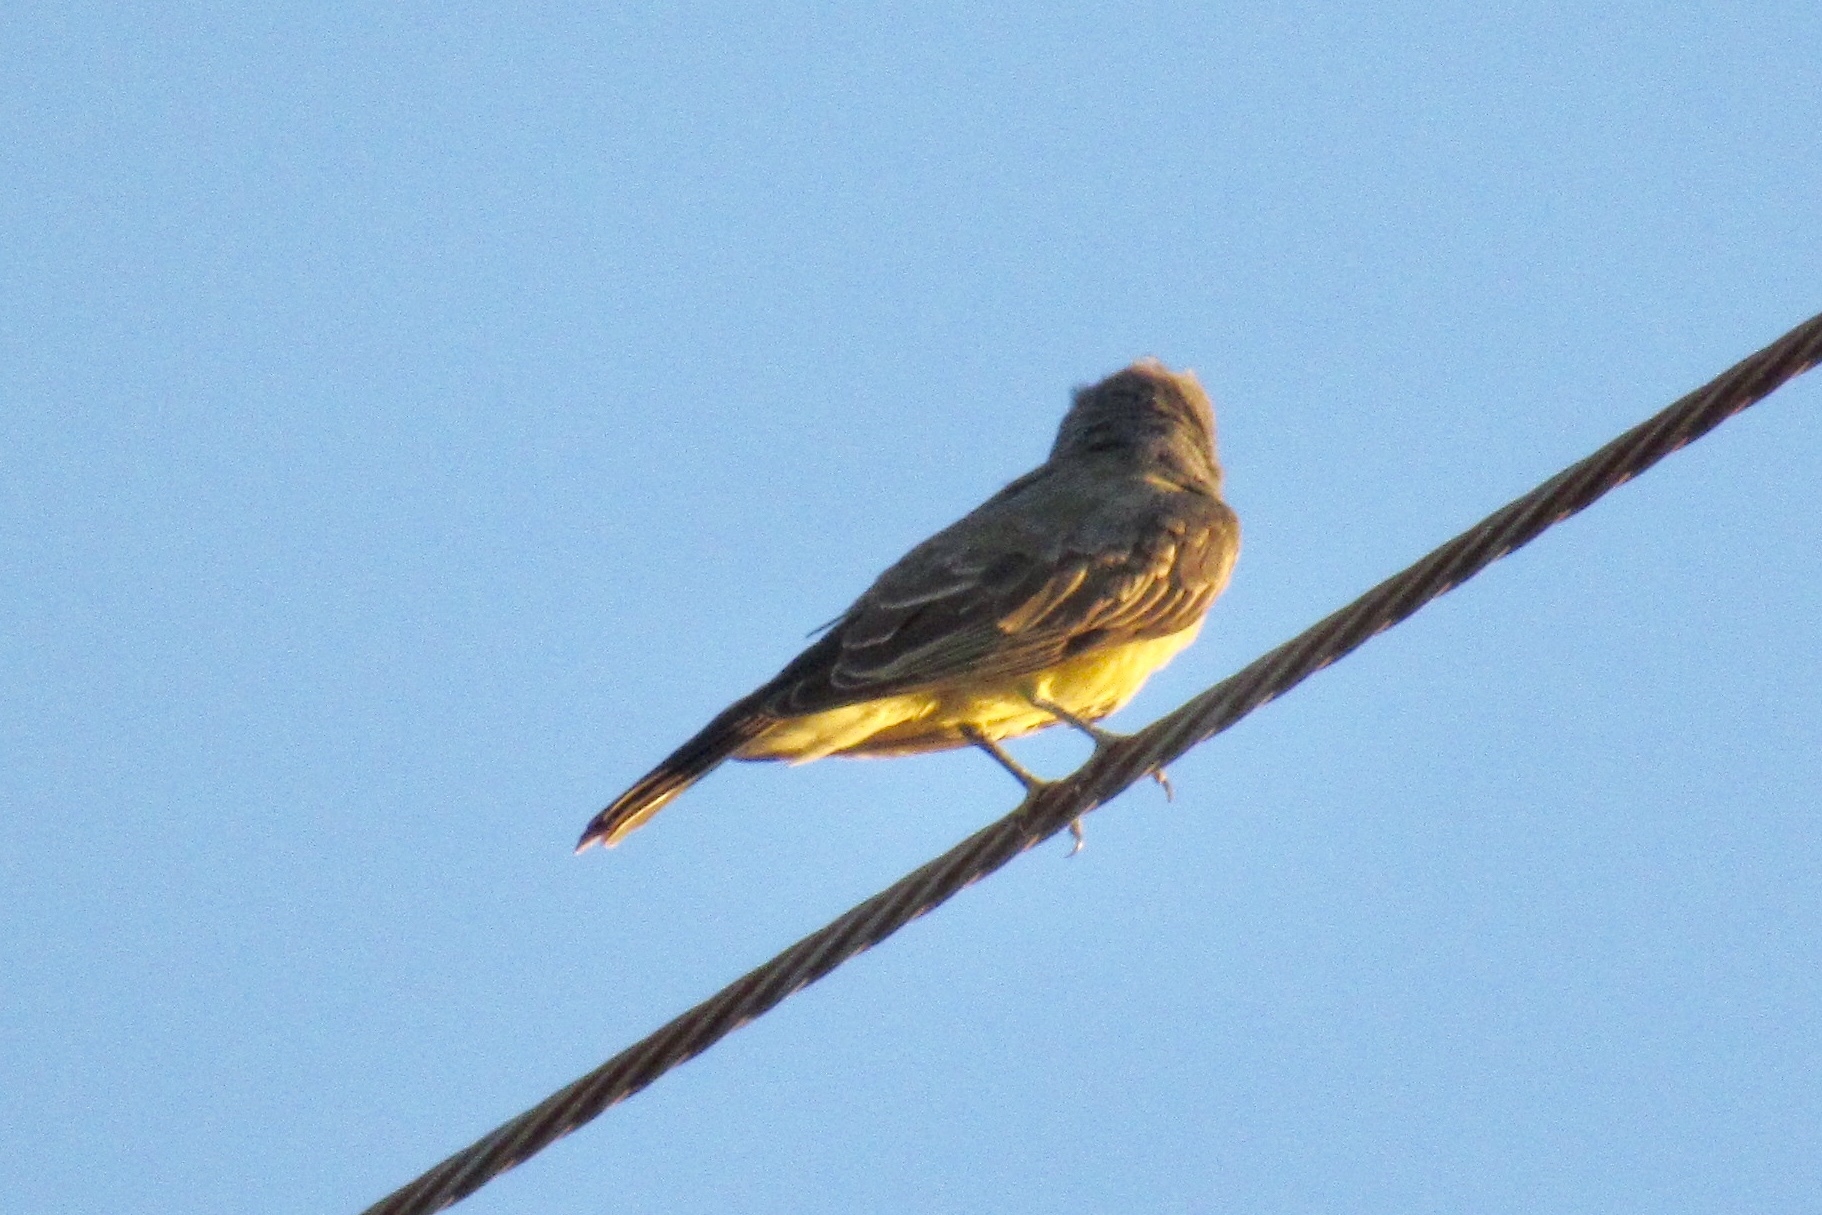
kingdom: Animalia
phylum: Chordata
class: Aves
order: Passeriformes
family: Tyrannidae
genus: Tyrannus
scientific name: Tyrannus vociferans
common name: Cassin's kingbird
